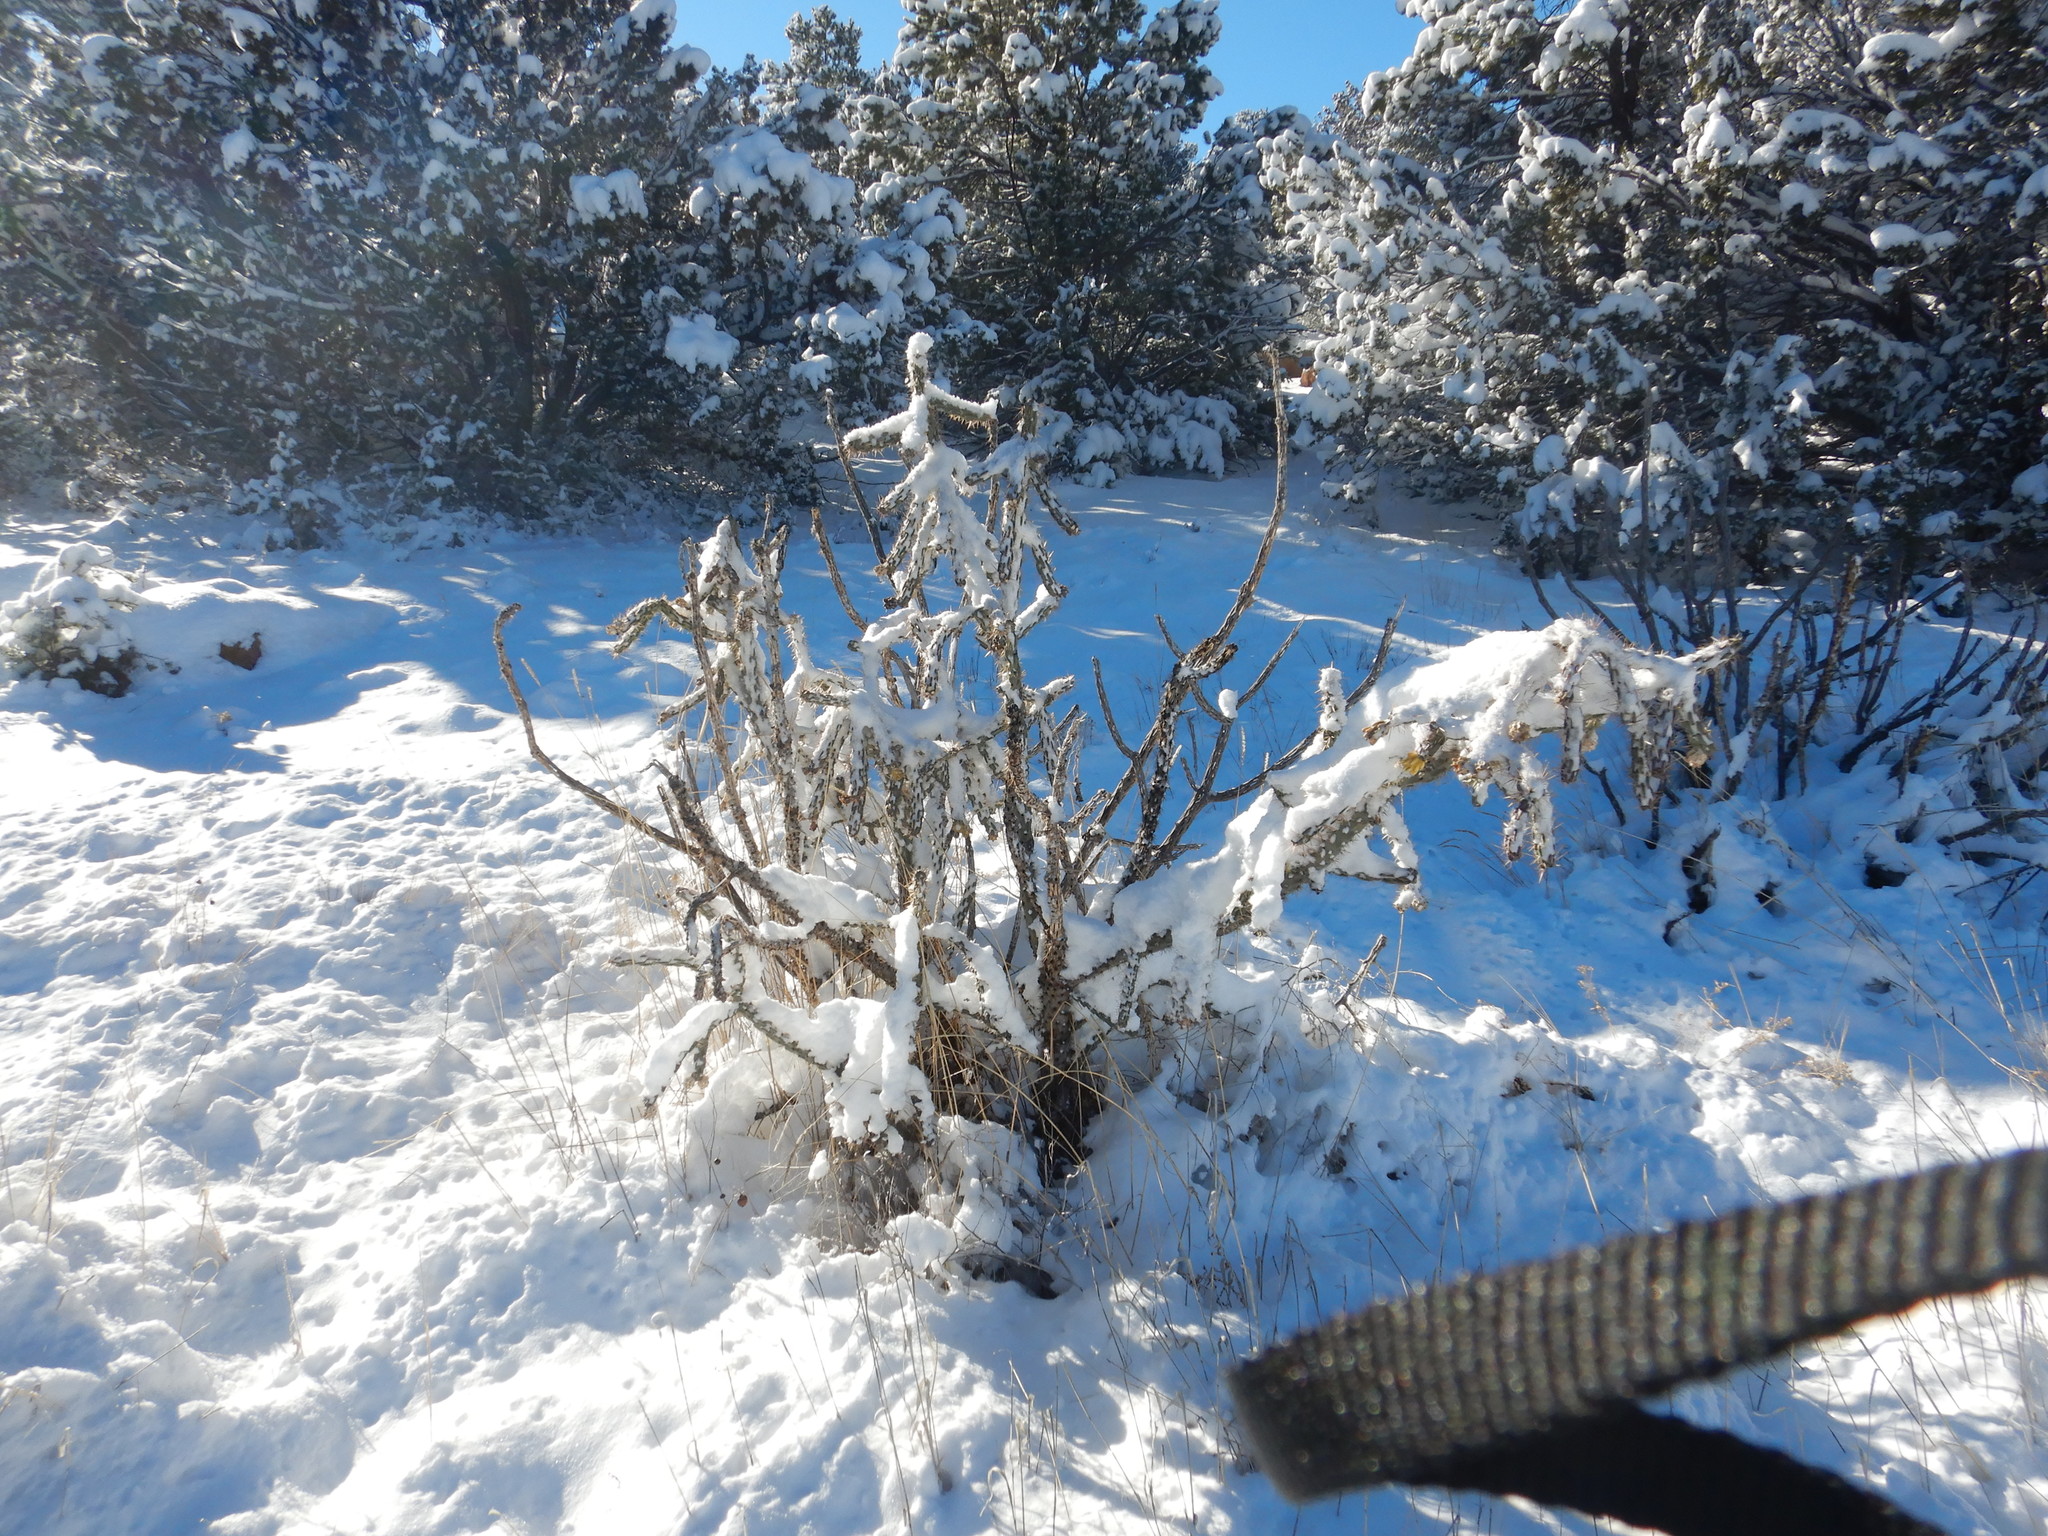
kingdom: Plantae
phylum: Tracheophyta
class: Magnoliopsida
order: Caryophyllales
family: Cactaceae
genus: Cylindropuntia
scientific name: Cylindropuntia imbricata
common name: Candelabrum cactus
